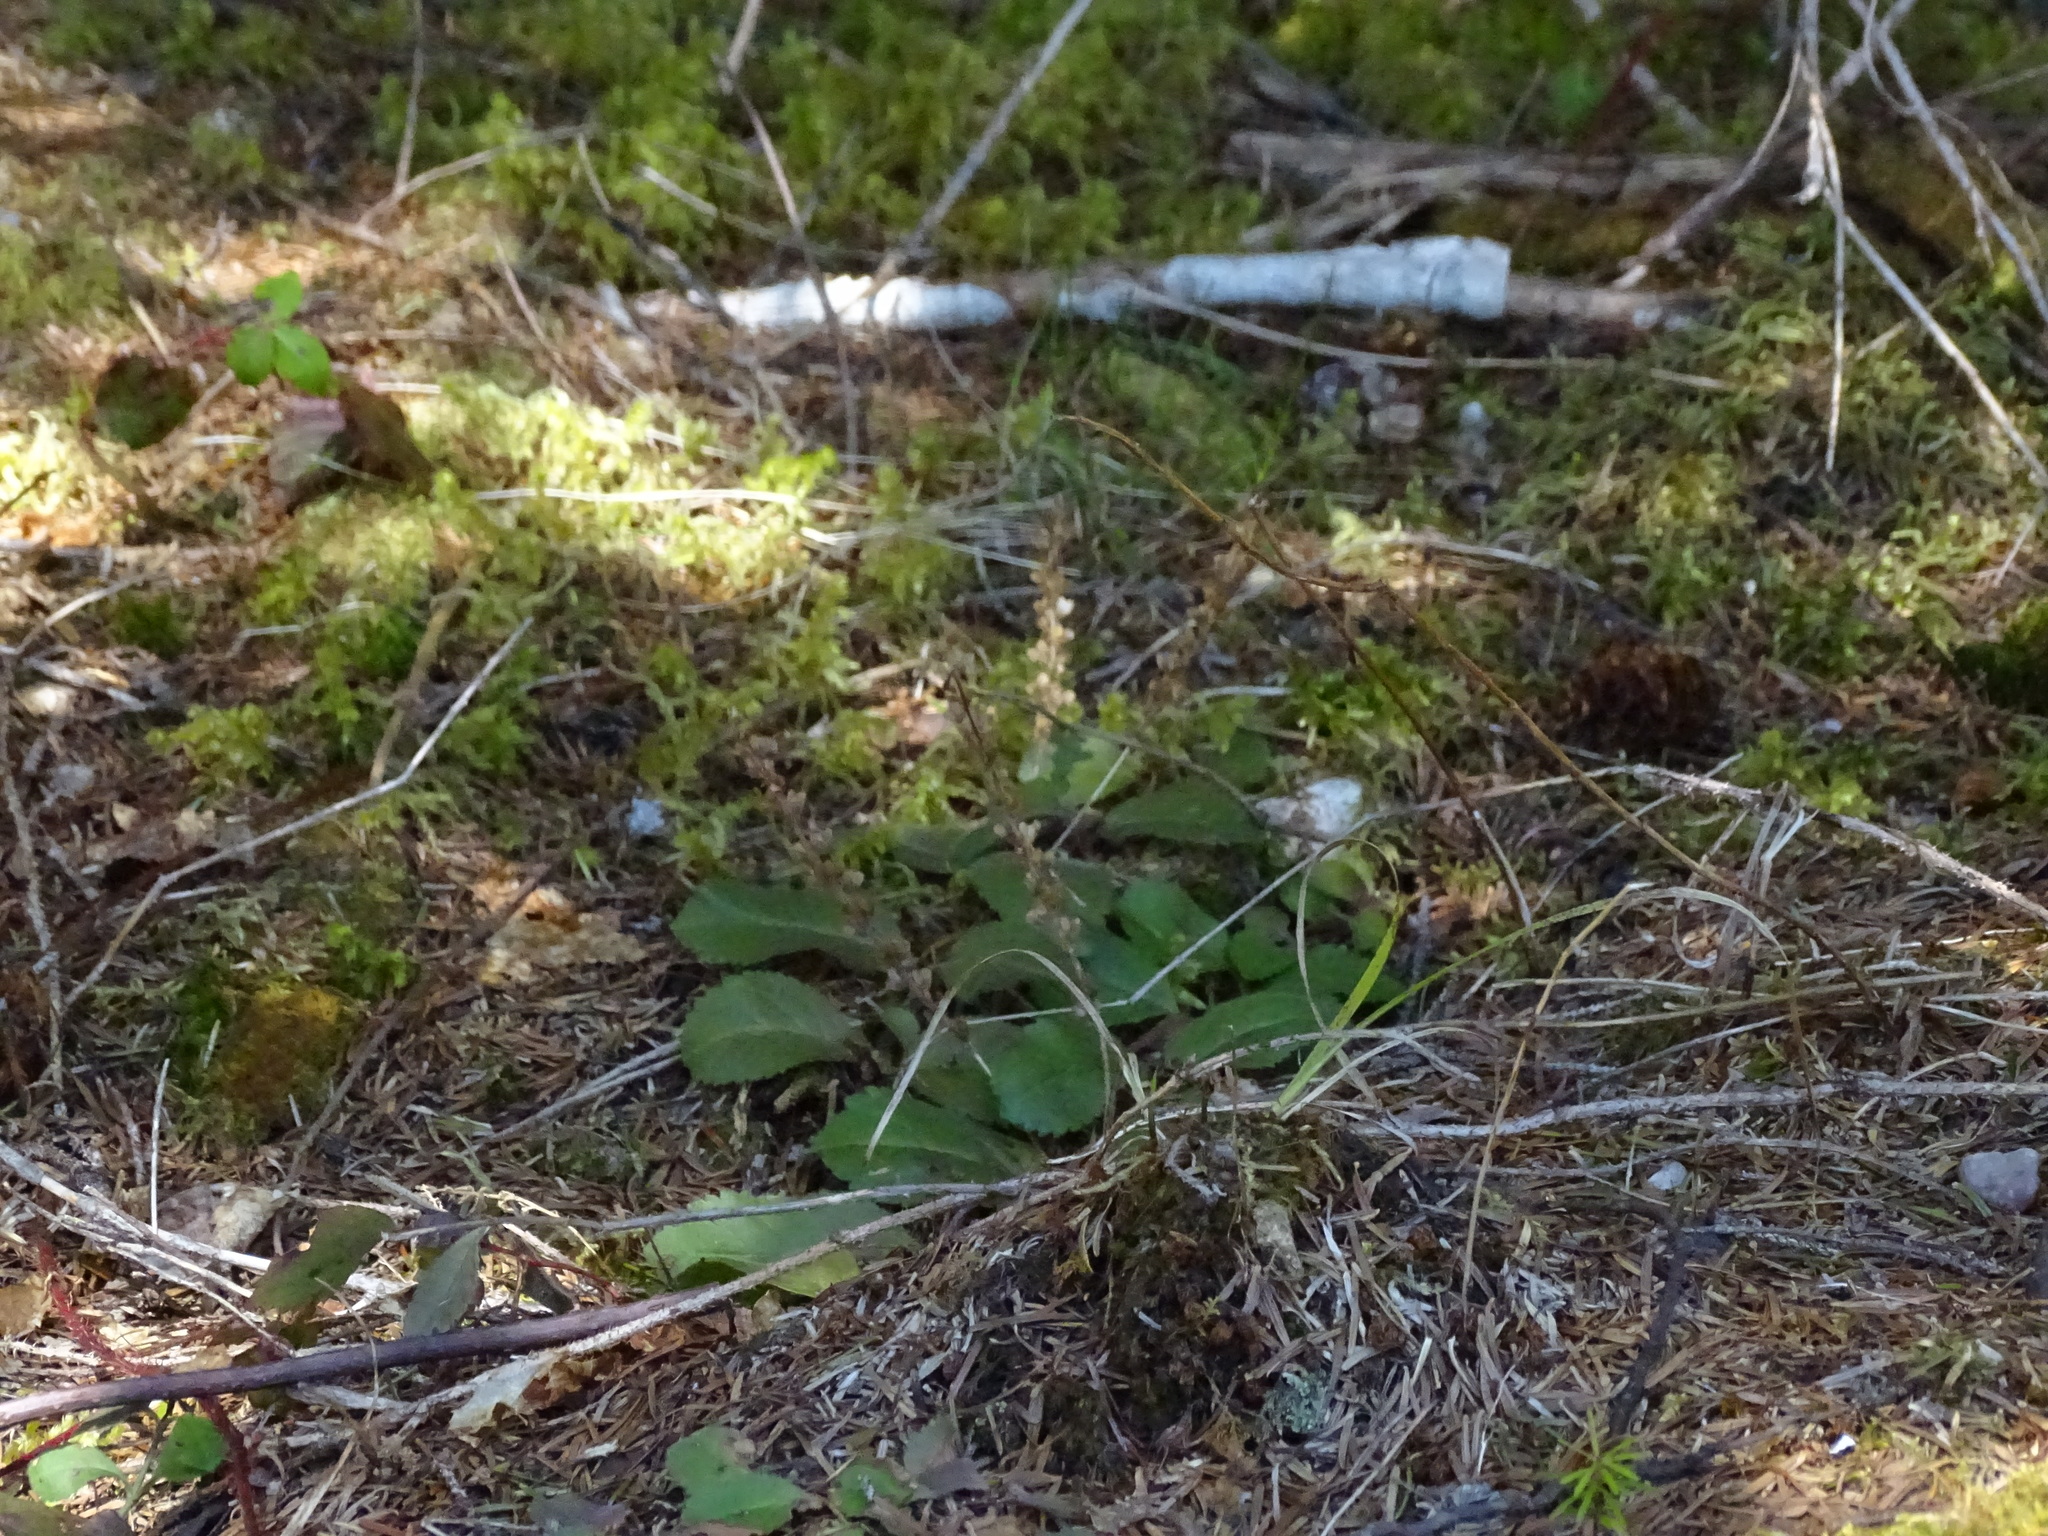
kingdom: Plantae
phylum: Tracheophyta
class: Magnoliopsida
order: Lamiales
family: Plantaginaceae
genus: Veronica
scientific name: Veronica officinalis
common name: Common speedwell
